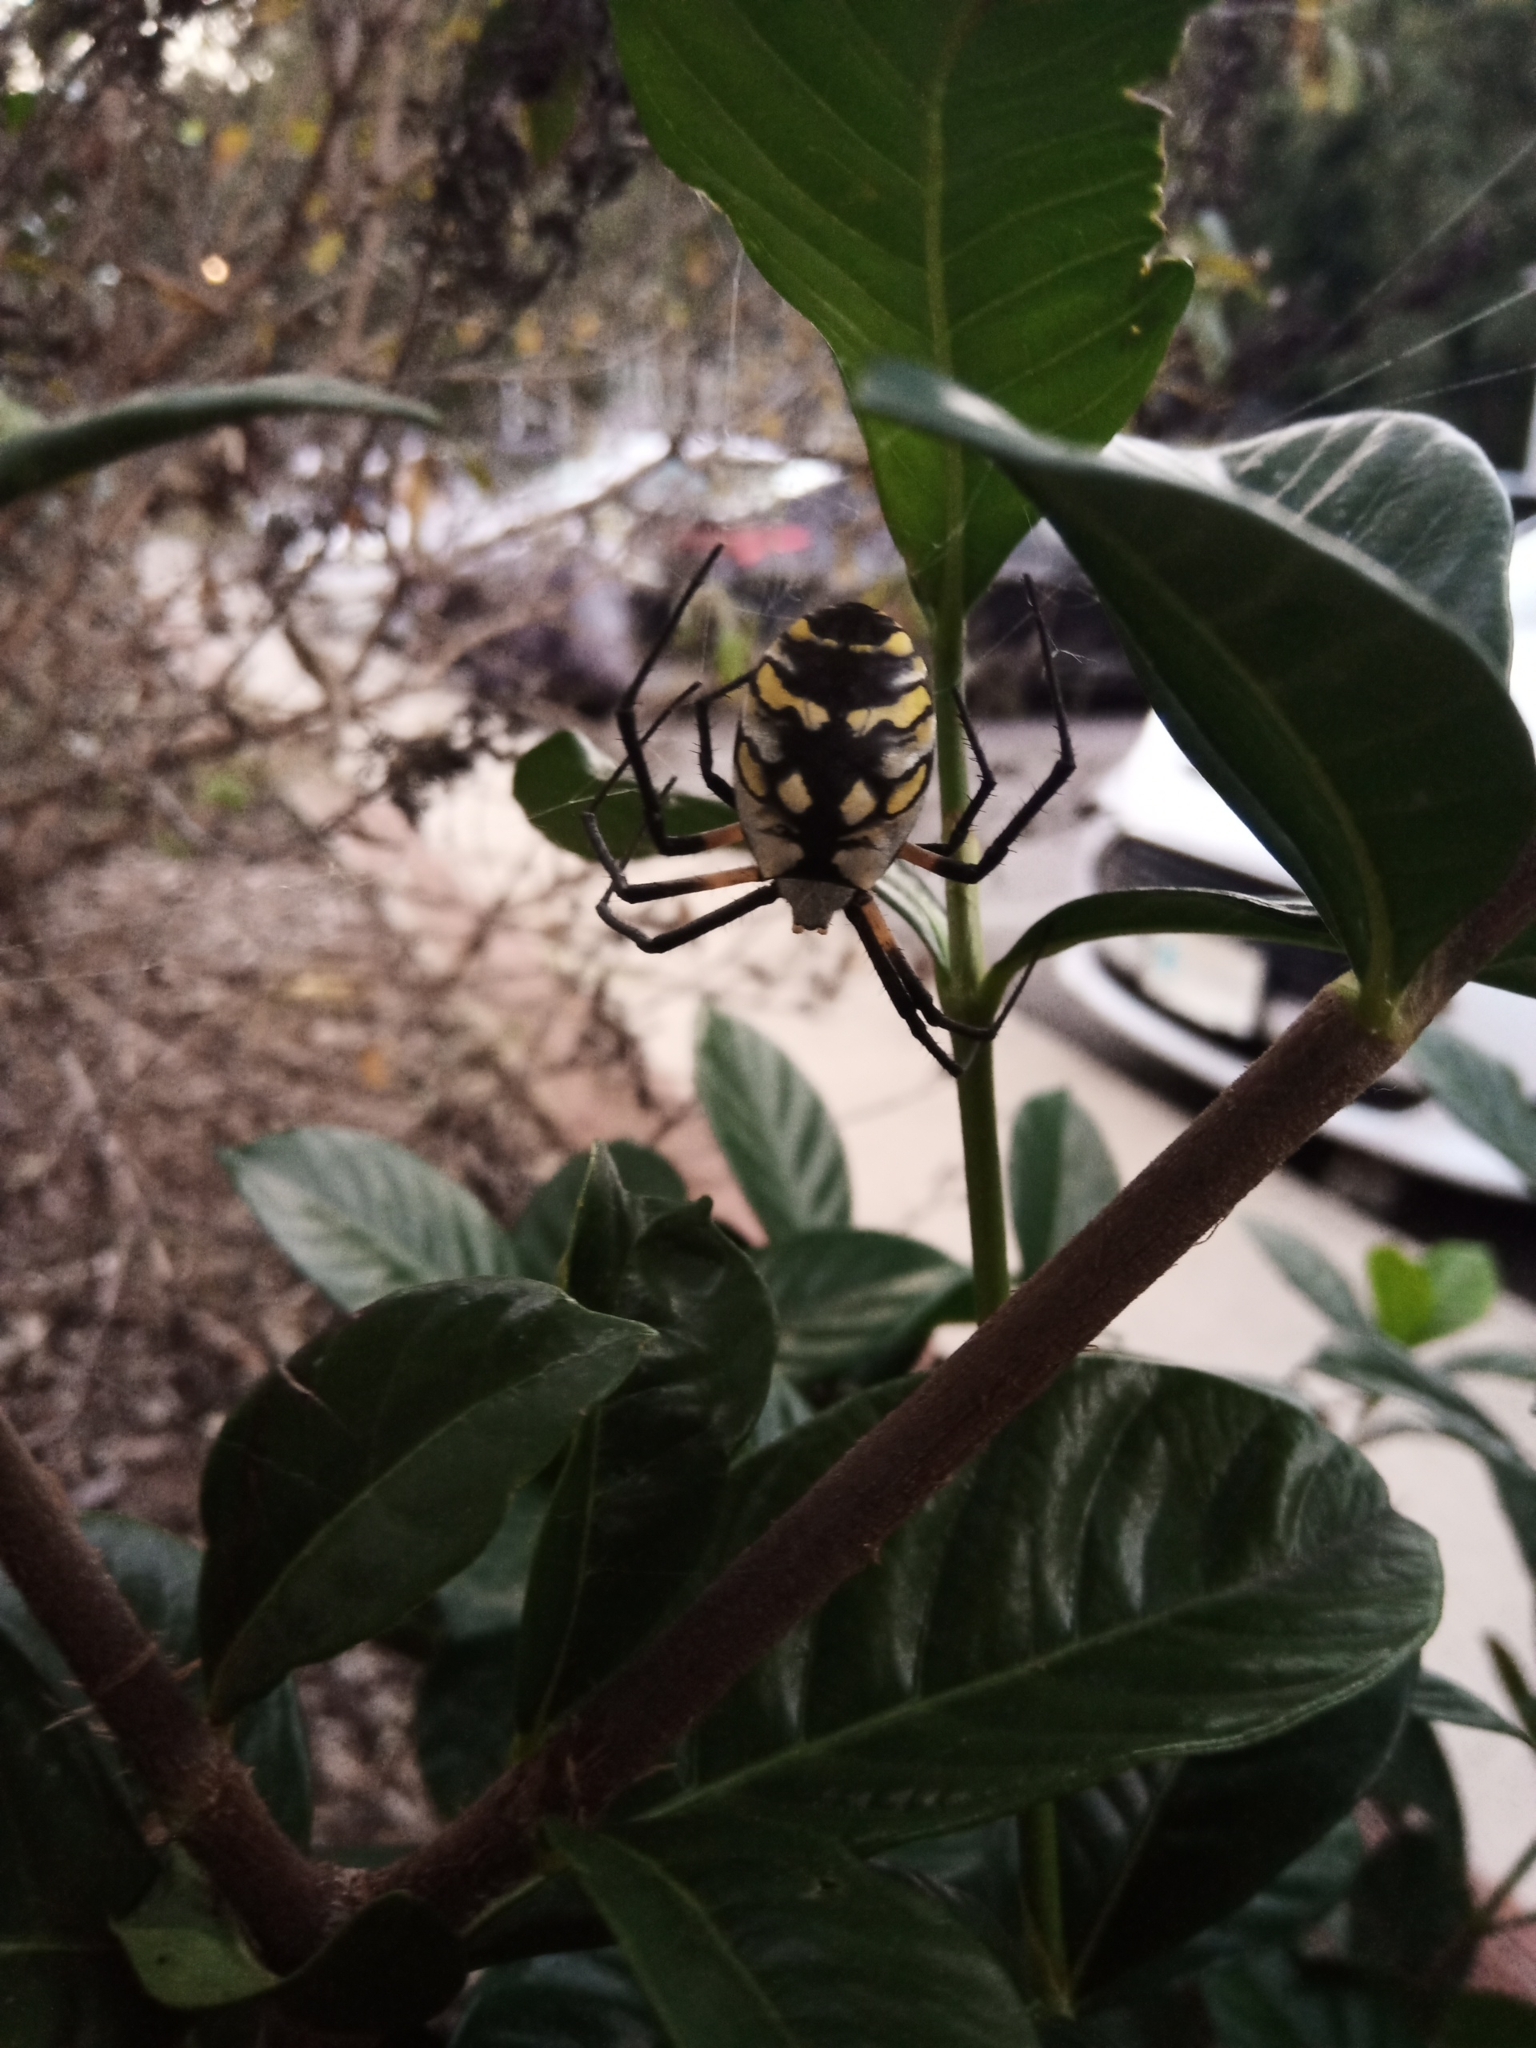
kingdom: Animalia
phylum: Arthropoda
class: Arachnida
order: Araneae
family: Araneidae
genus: Argiope
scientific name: Argiope aurantia
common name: Orb weavers
